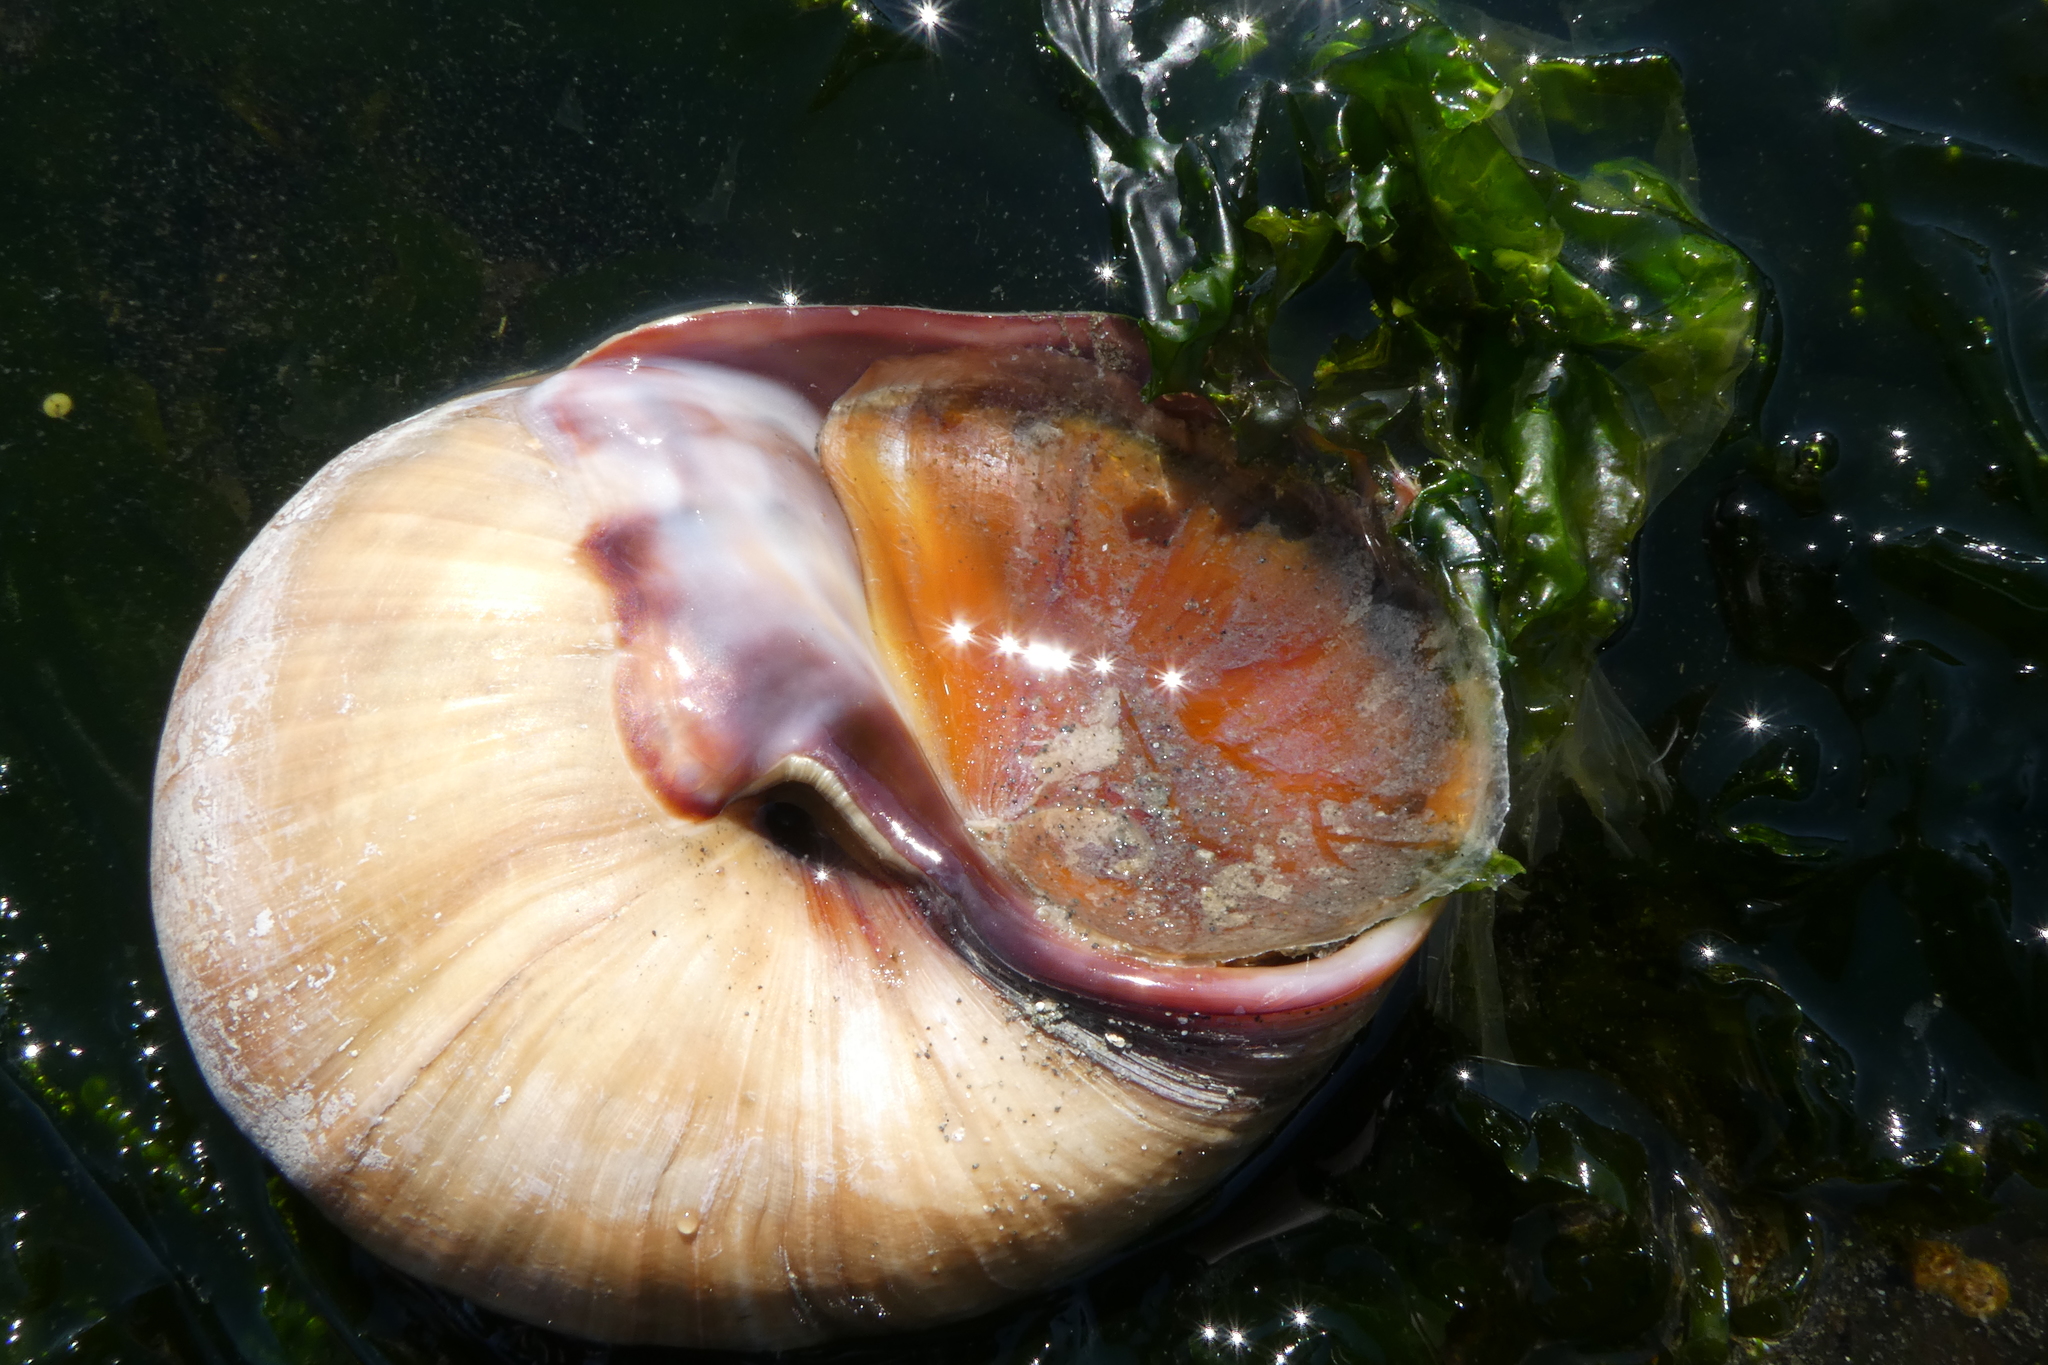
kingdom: Animalia
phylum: Mollusca
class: Gastropoda
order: Littorinimorpha
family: Naticidae
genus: Neverita
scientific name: Neverita lewisii
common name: Lewis' moonsnail
